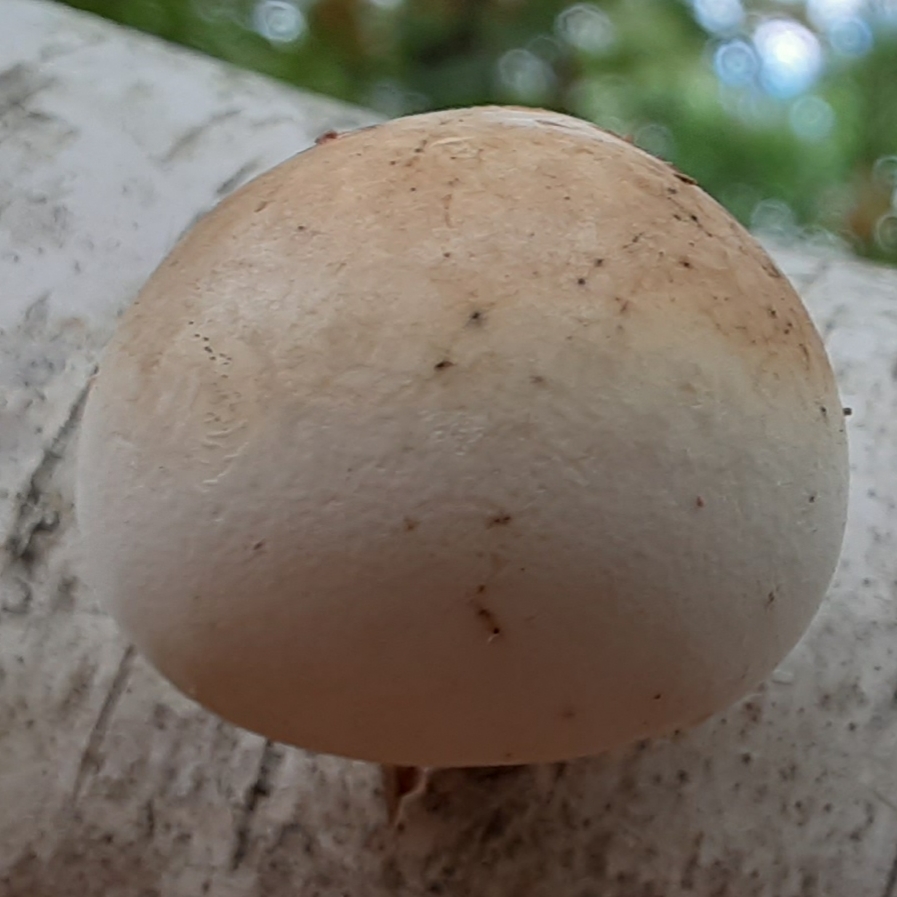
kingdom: Fungi
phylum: Basidiomycota
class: Agaricomycetes
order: Polyporales
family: Fomitopsidaceae
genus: Fomitopsis
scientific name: Fomitopsis betulina
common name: Birch polypore
